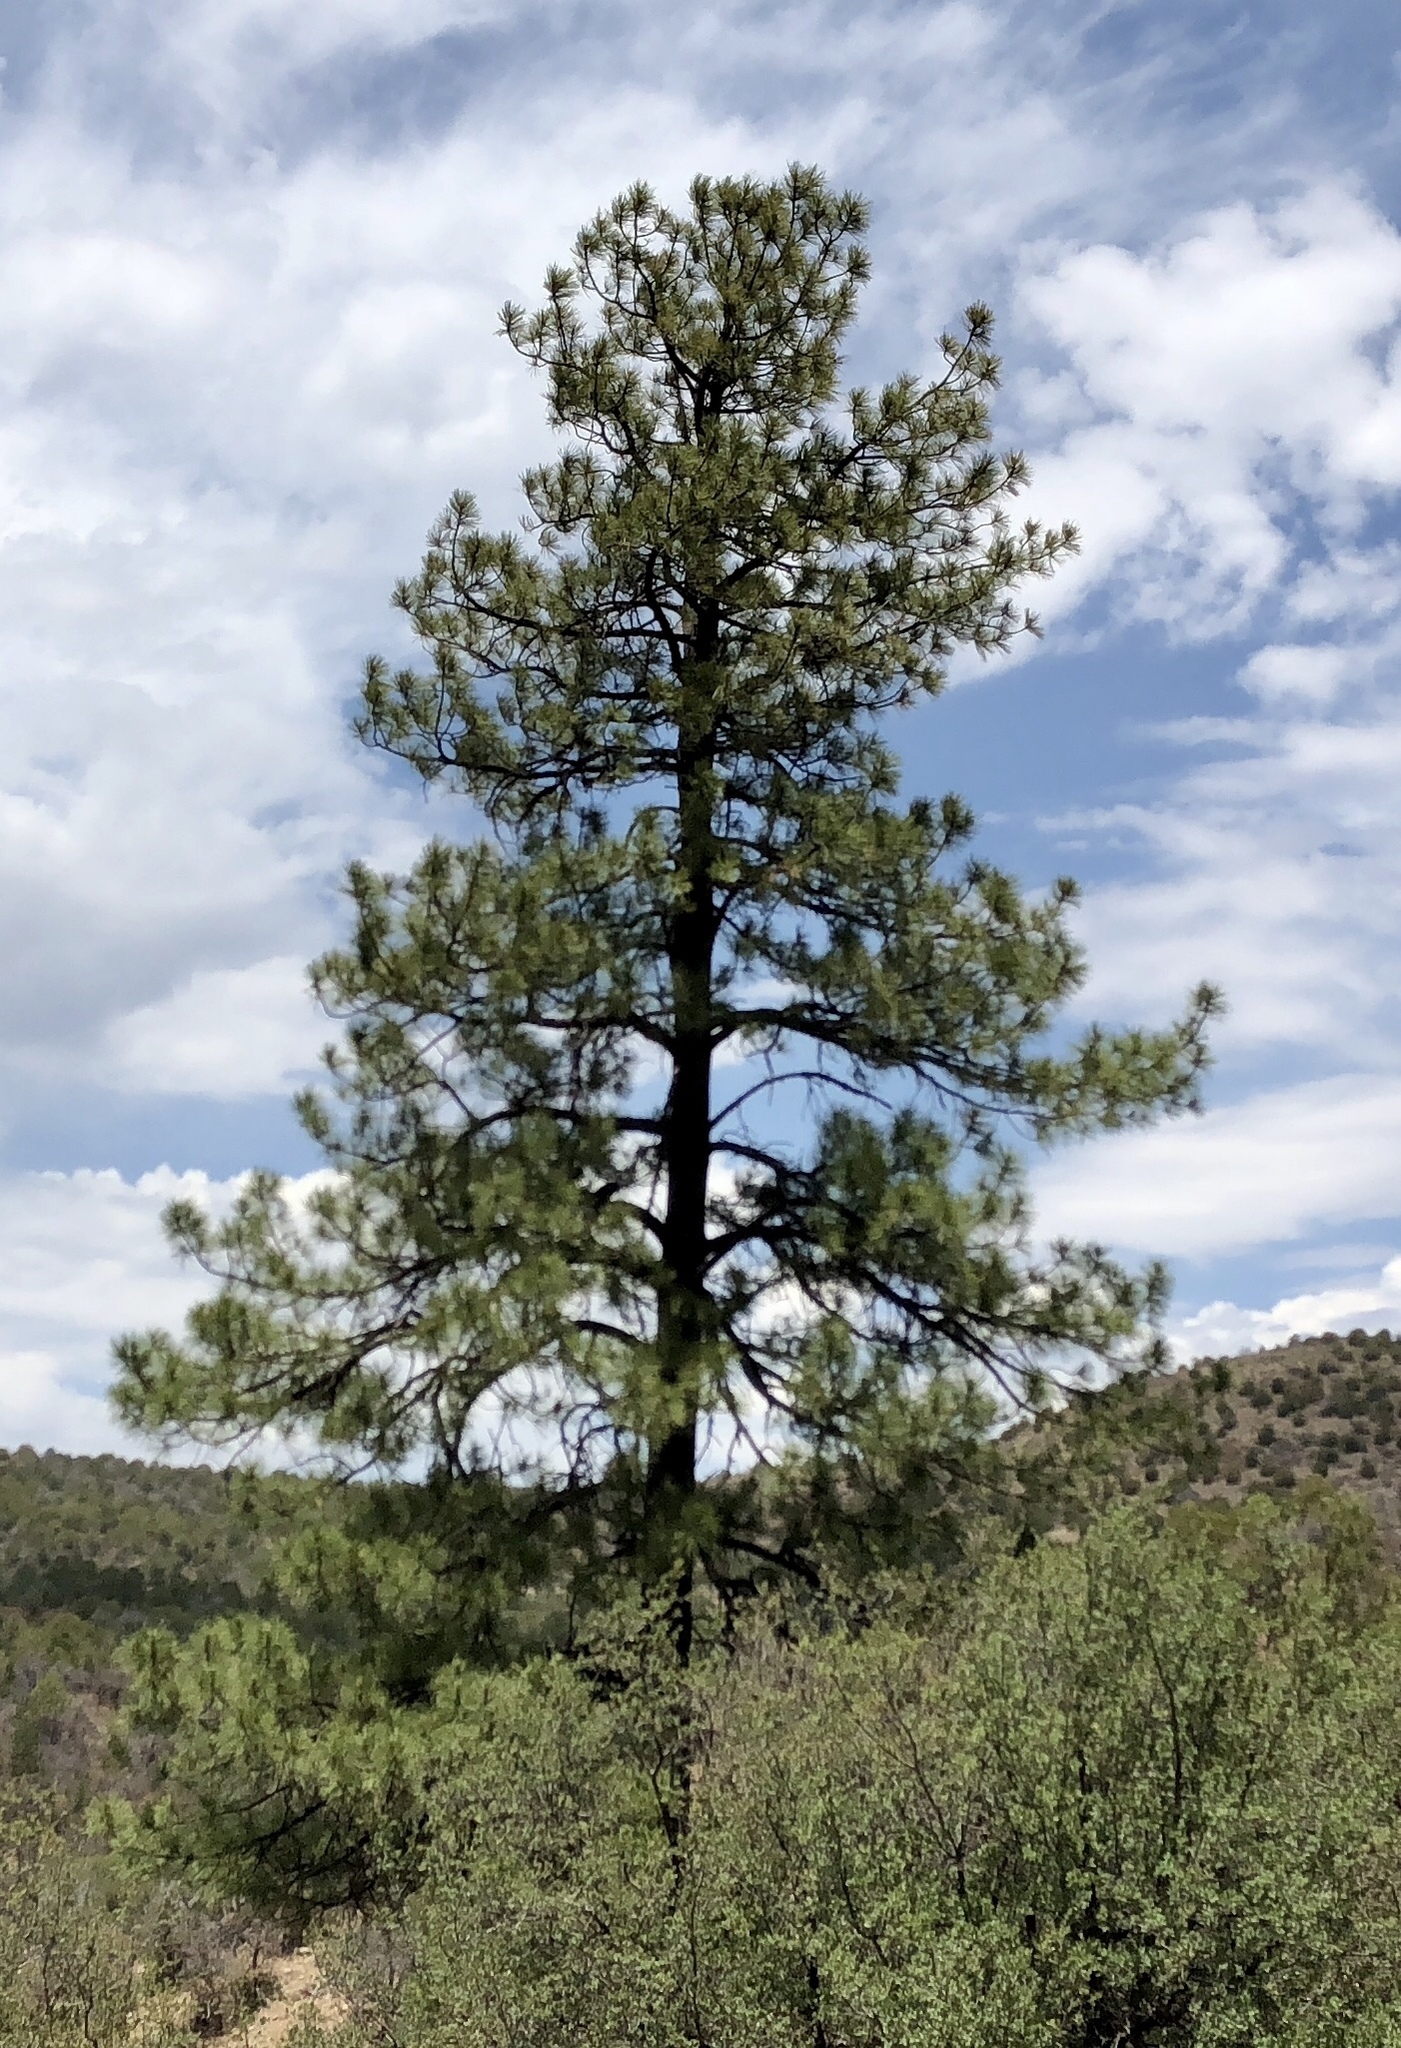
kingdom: Plantae
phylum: Tracheophyta
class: Pinopsida
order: Pinales
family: Pinaceae
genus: Pinus
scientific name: Pinus ponderosa
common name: Western yellow-pine
